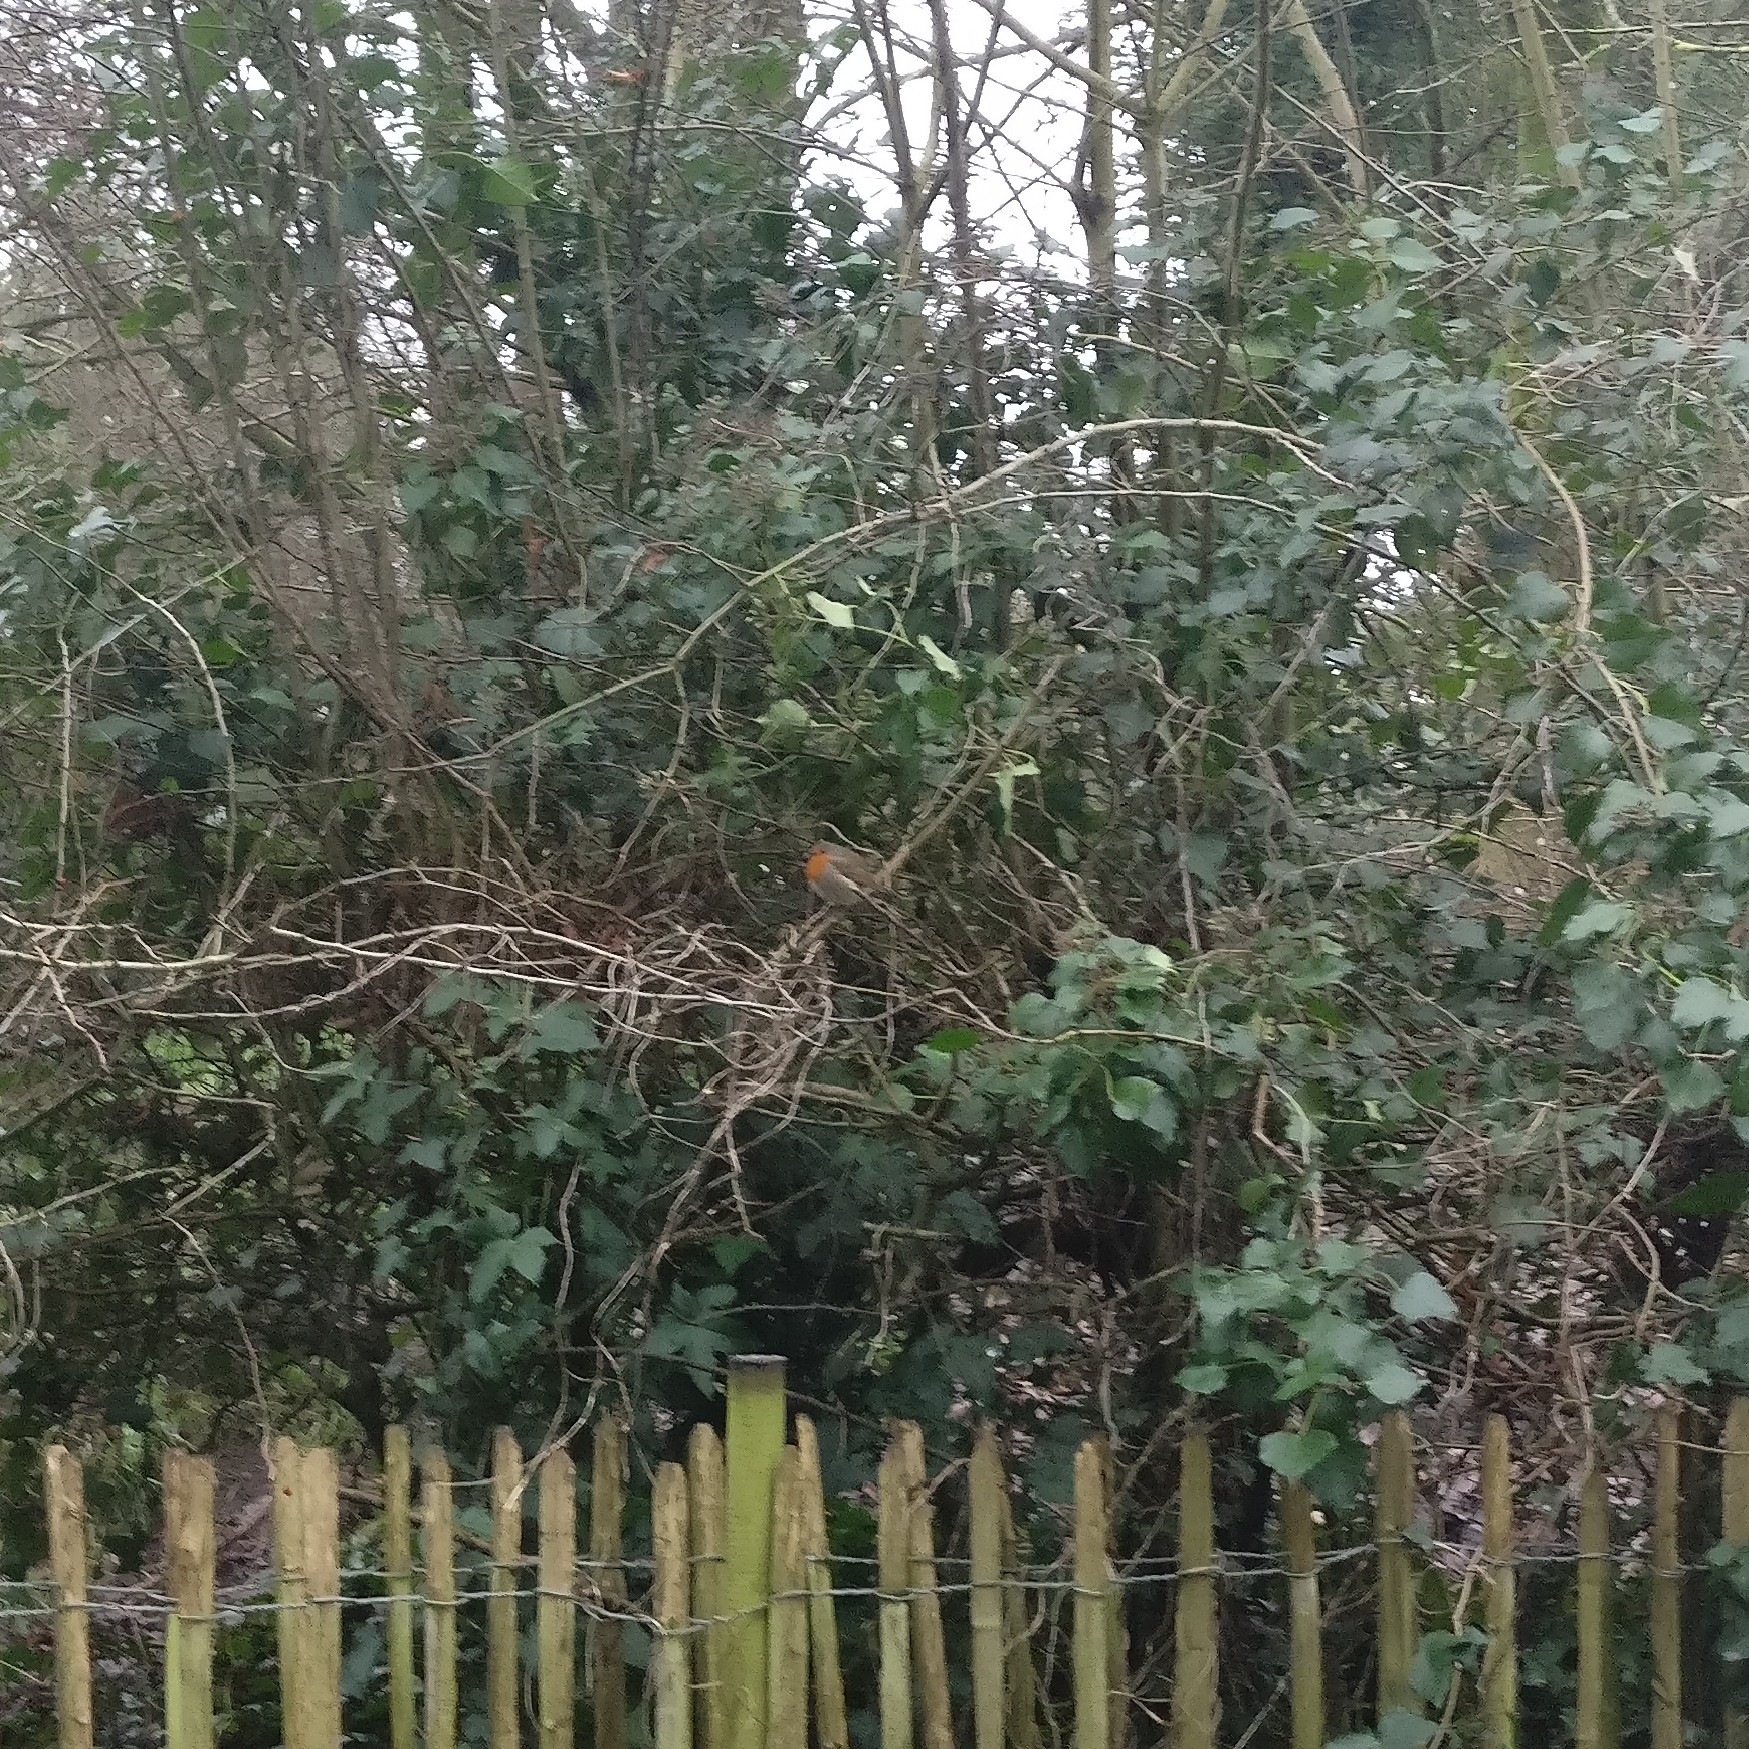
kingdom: Animalia
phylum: Chordata
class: Aves
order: Passeriformes
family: Muscicapidae
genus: Erithacus
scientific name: Erithacus rubecula
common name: European robin
